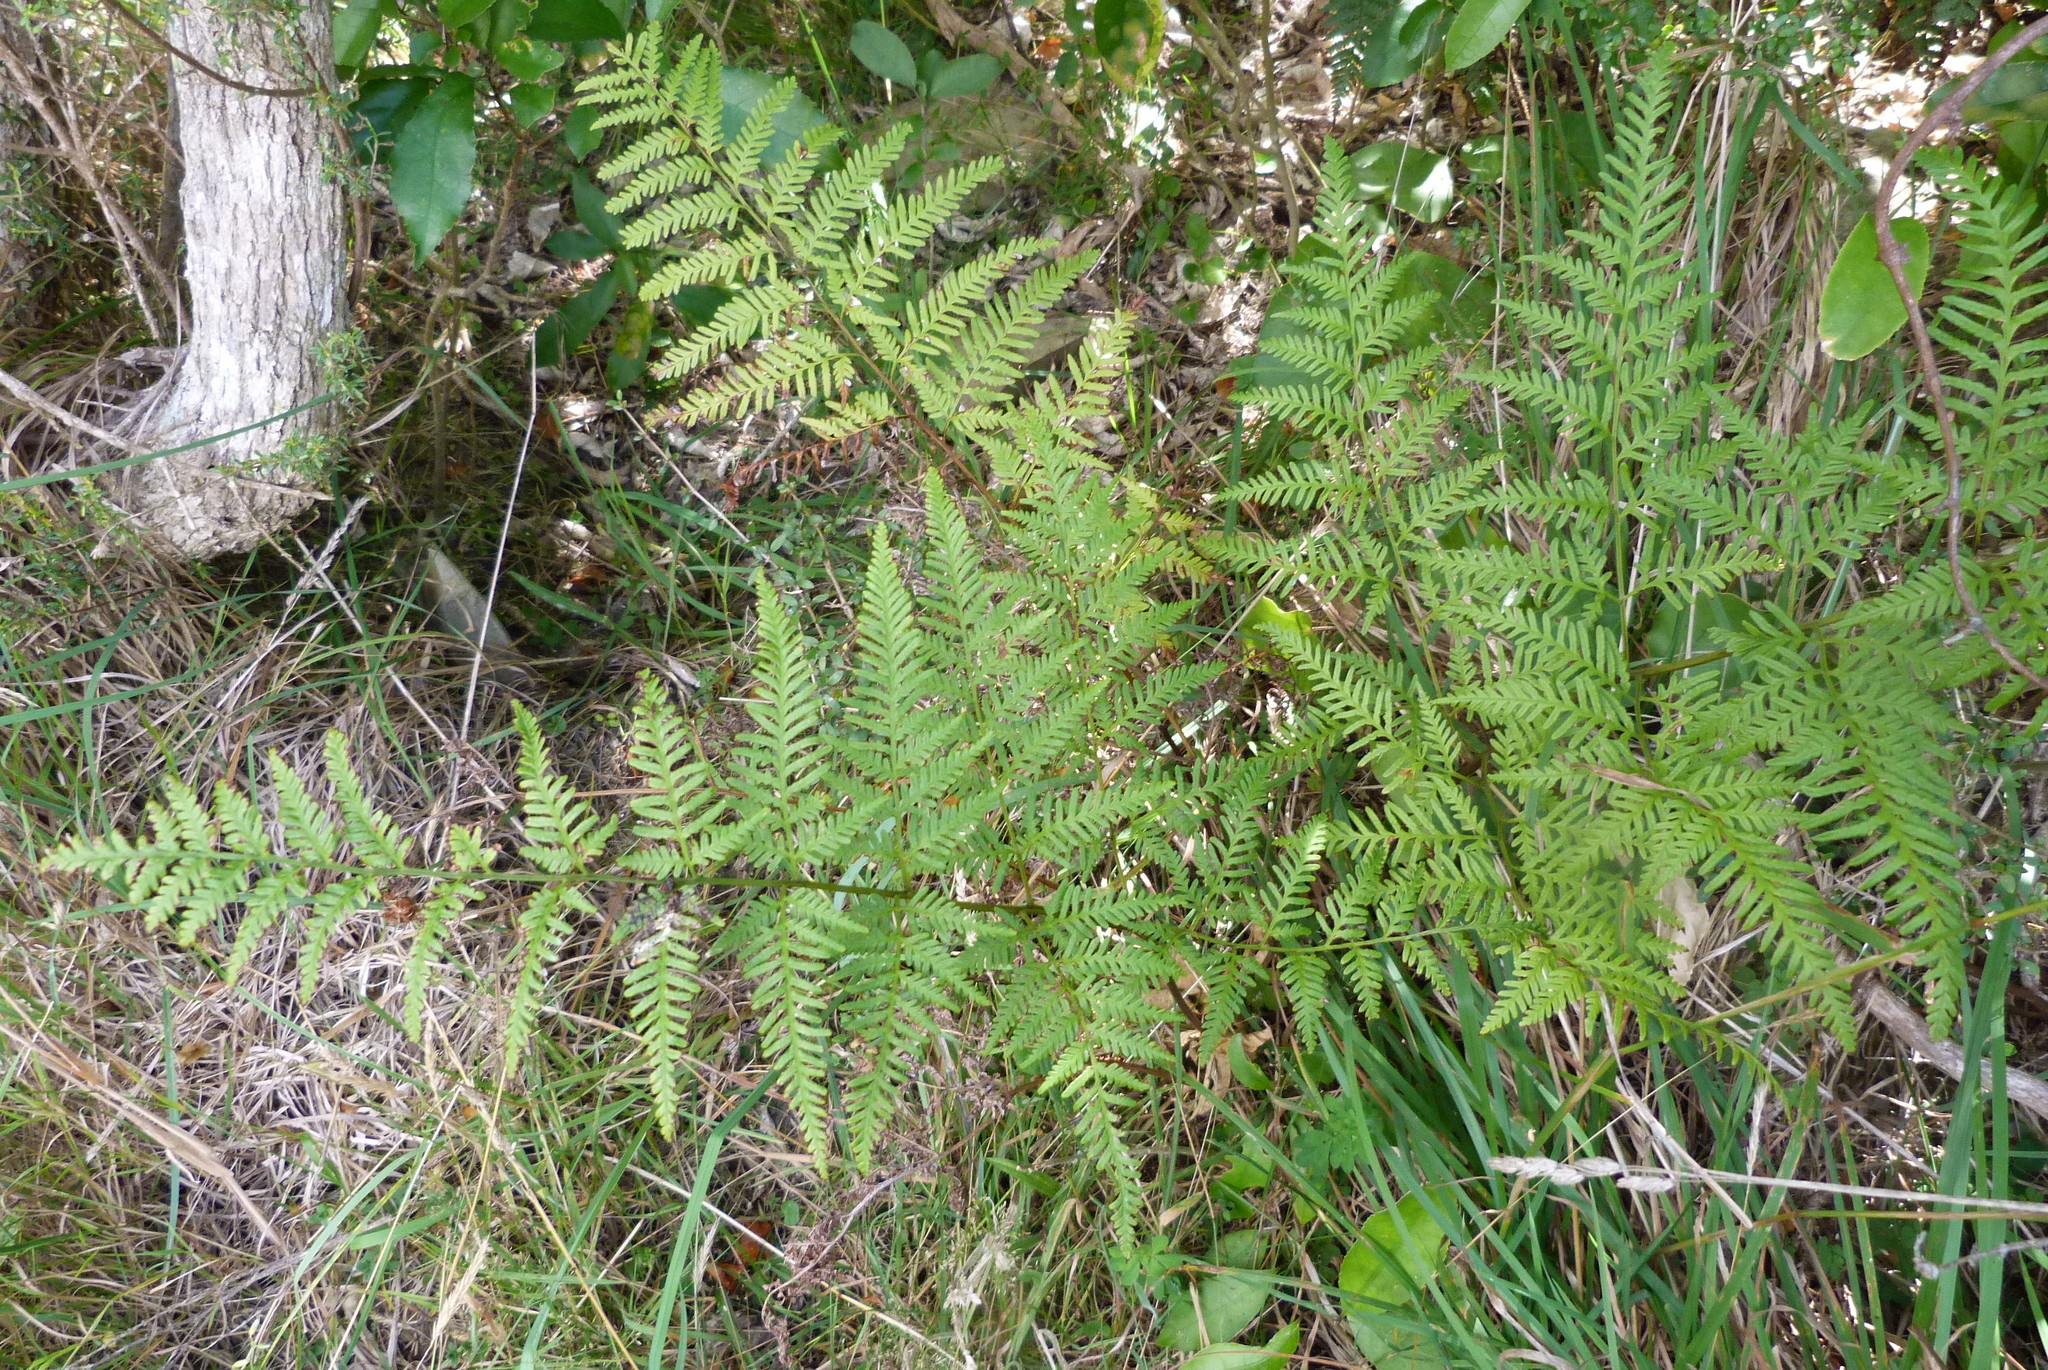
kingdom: Plantae
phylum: Tracheophyta
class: Polypodiopsida
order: Polypodiales
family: Pteridaceae
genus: Pteris
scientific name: Pteris tremula
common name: Australian brake
